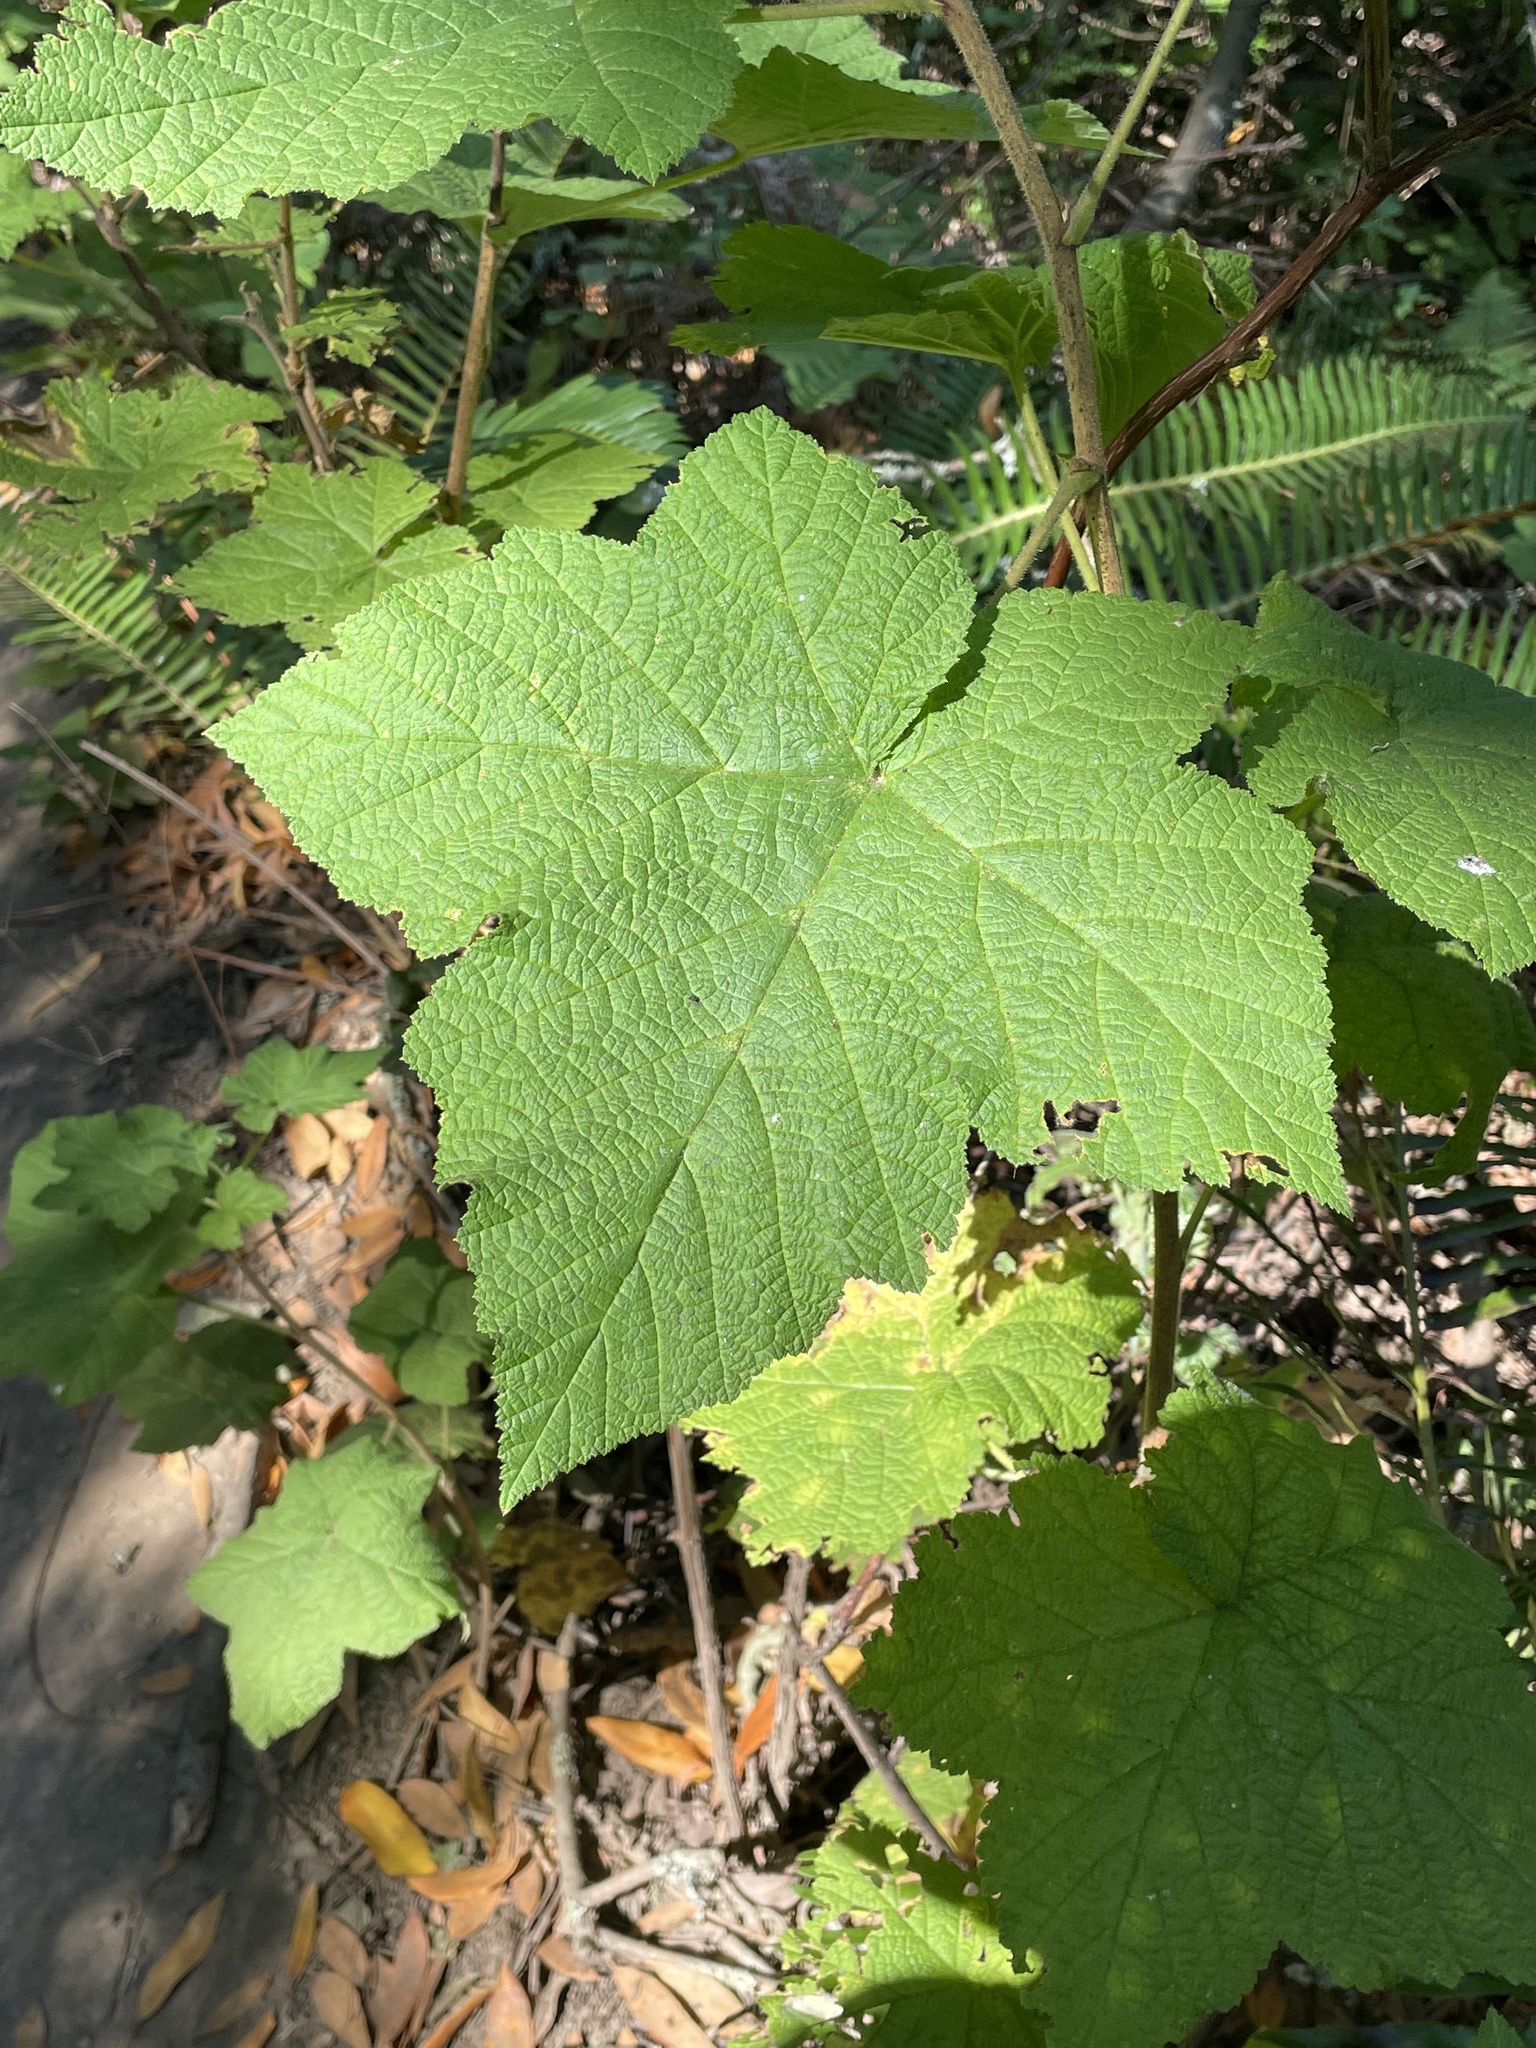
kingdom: Plantae
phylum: Tracheophyta
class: Magnoliopsida
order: Rosales
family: Rosaceae
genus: Rubus
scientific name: Rubus parviflorus
